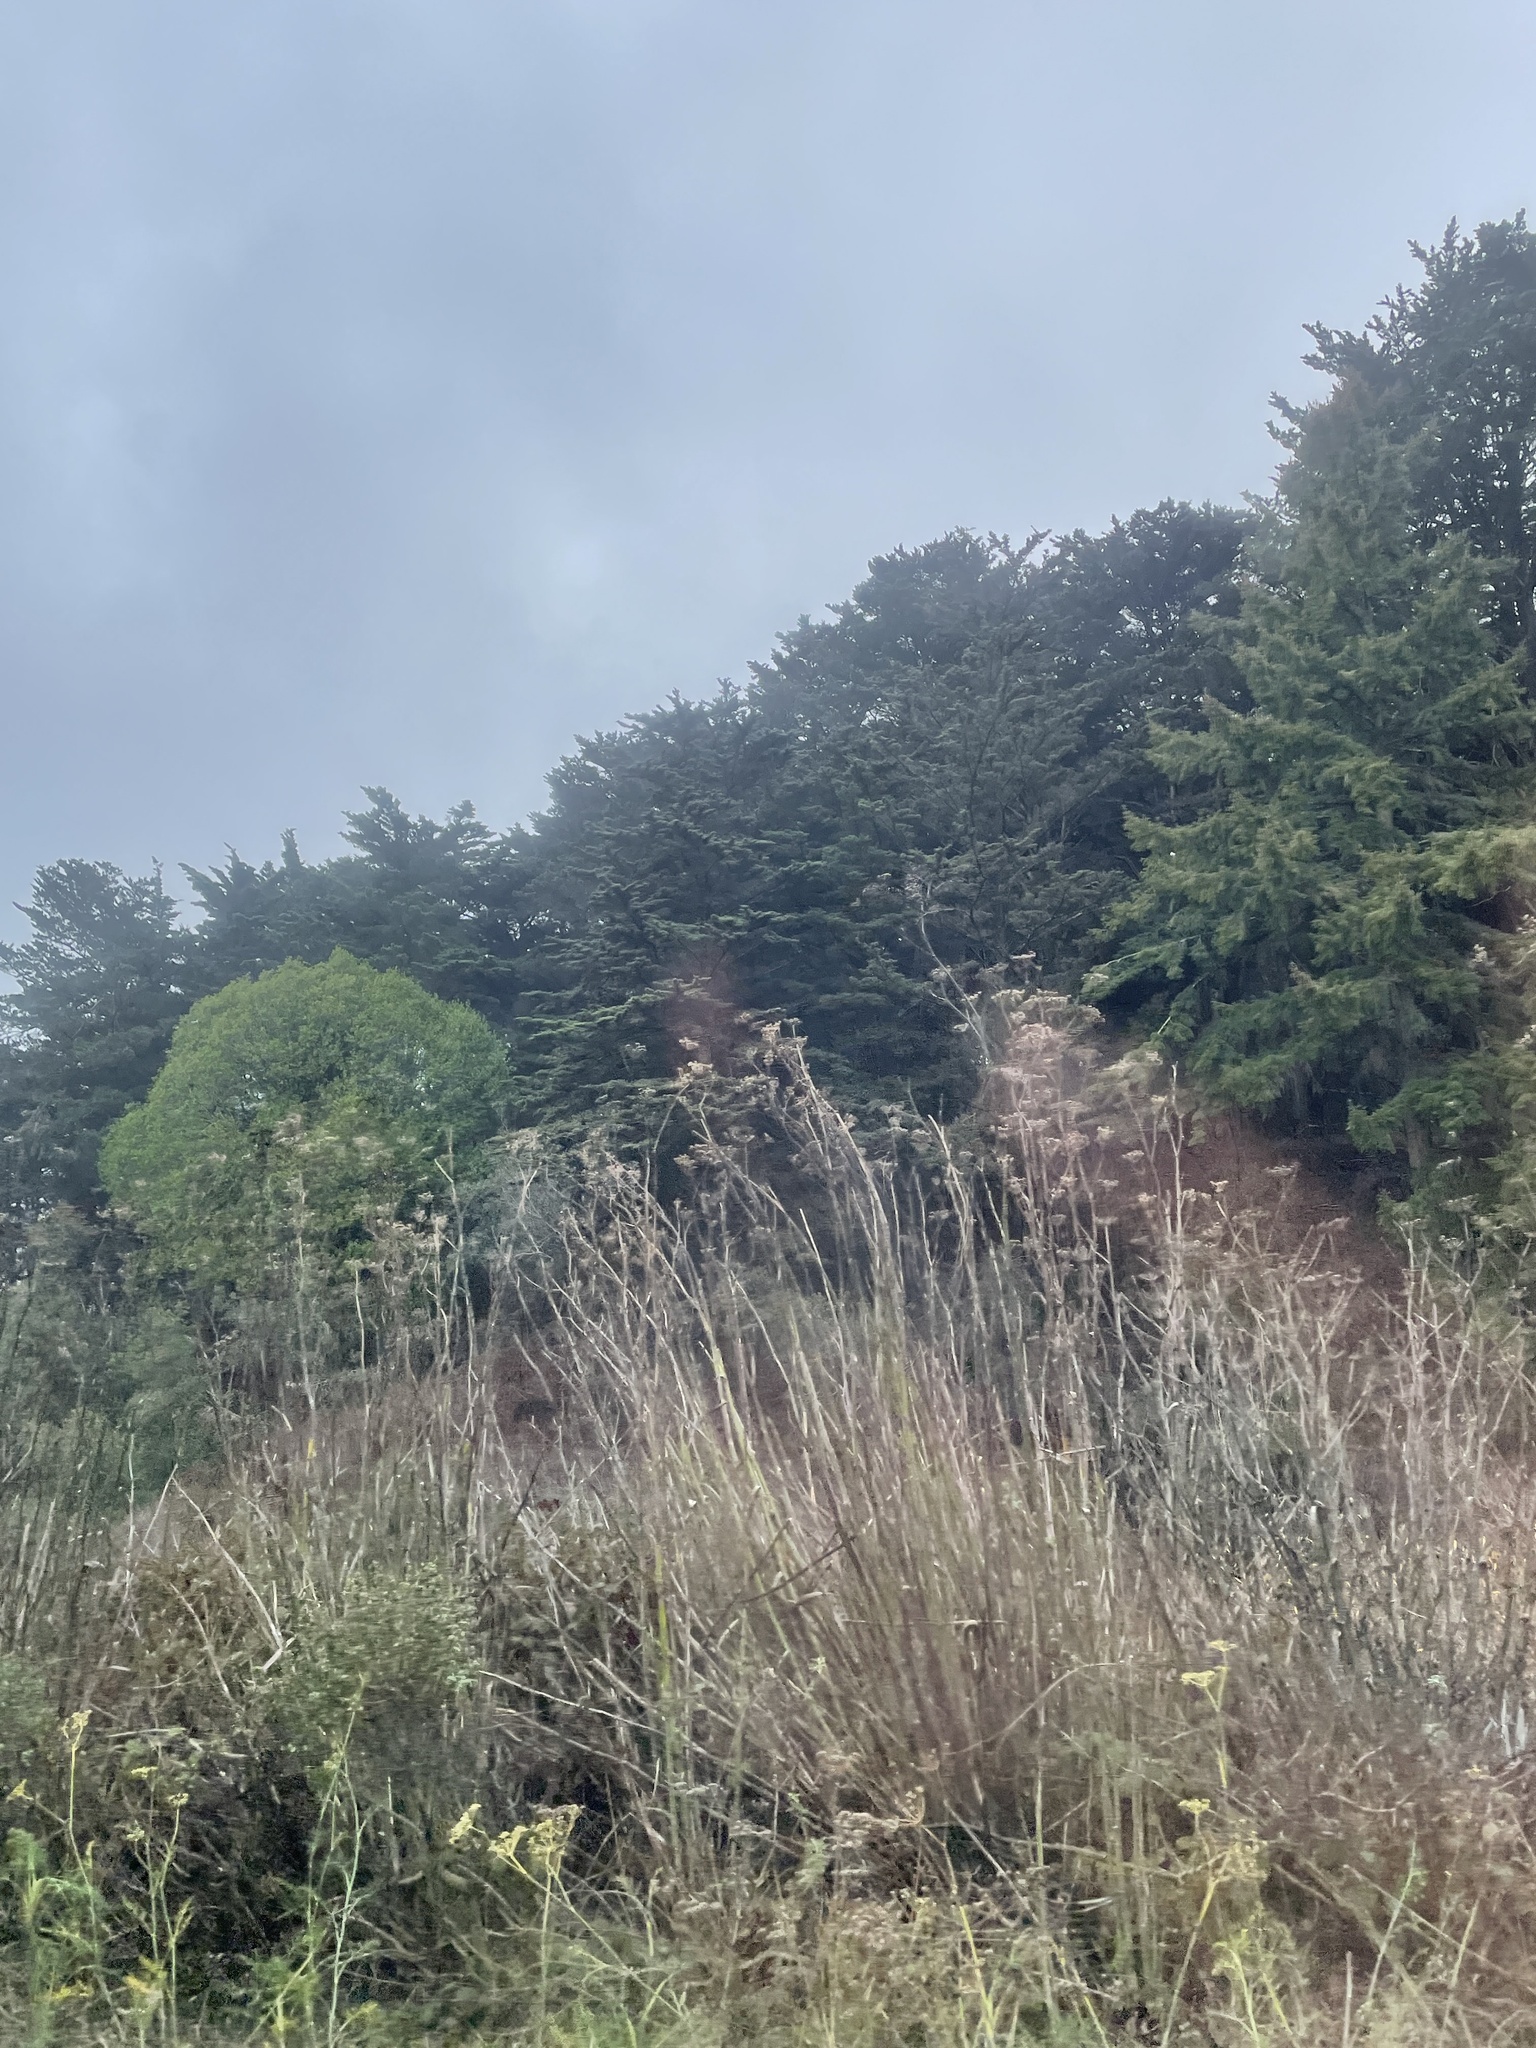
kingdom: Plantae
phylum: Tracheophyta
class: Magnoliopsida
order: Apiales
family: Apiaceae
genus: Foeniculum
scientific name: Foeniculum vulgare
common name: Fennel
